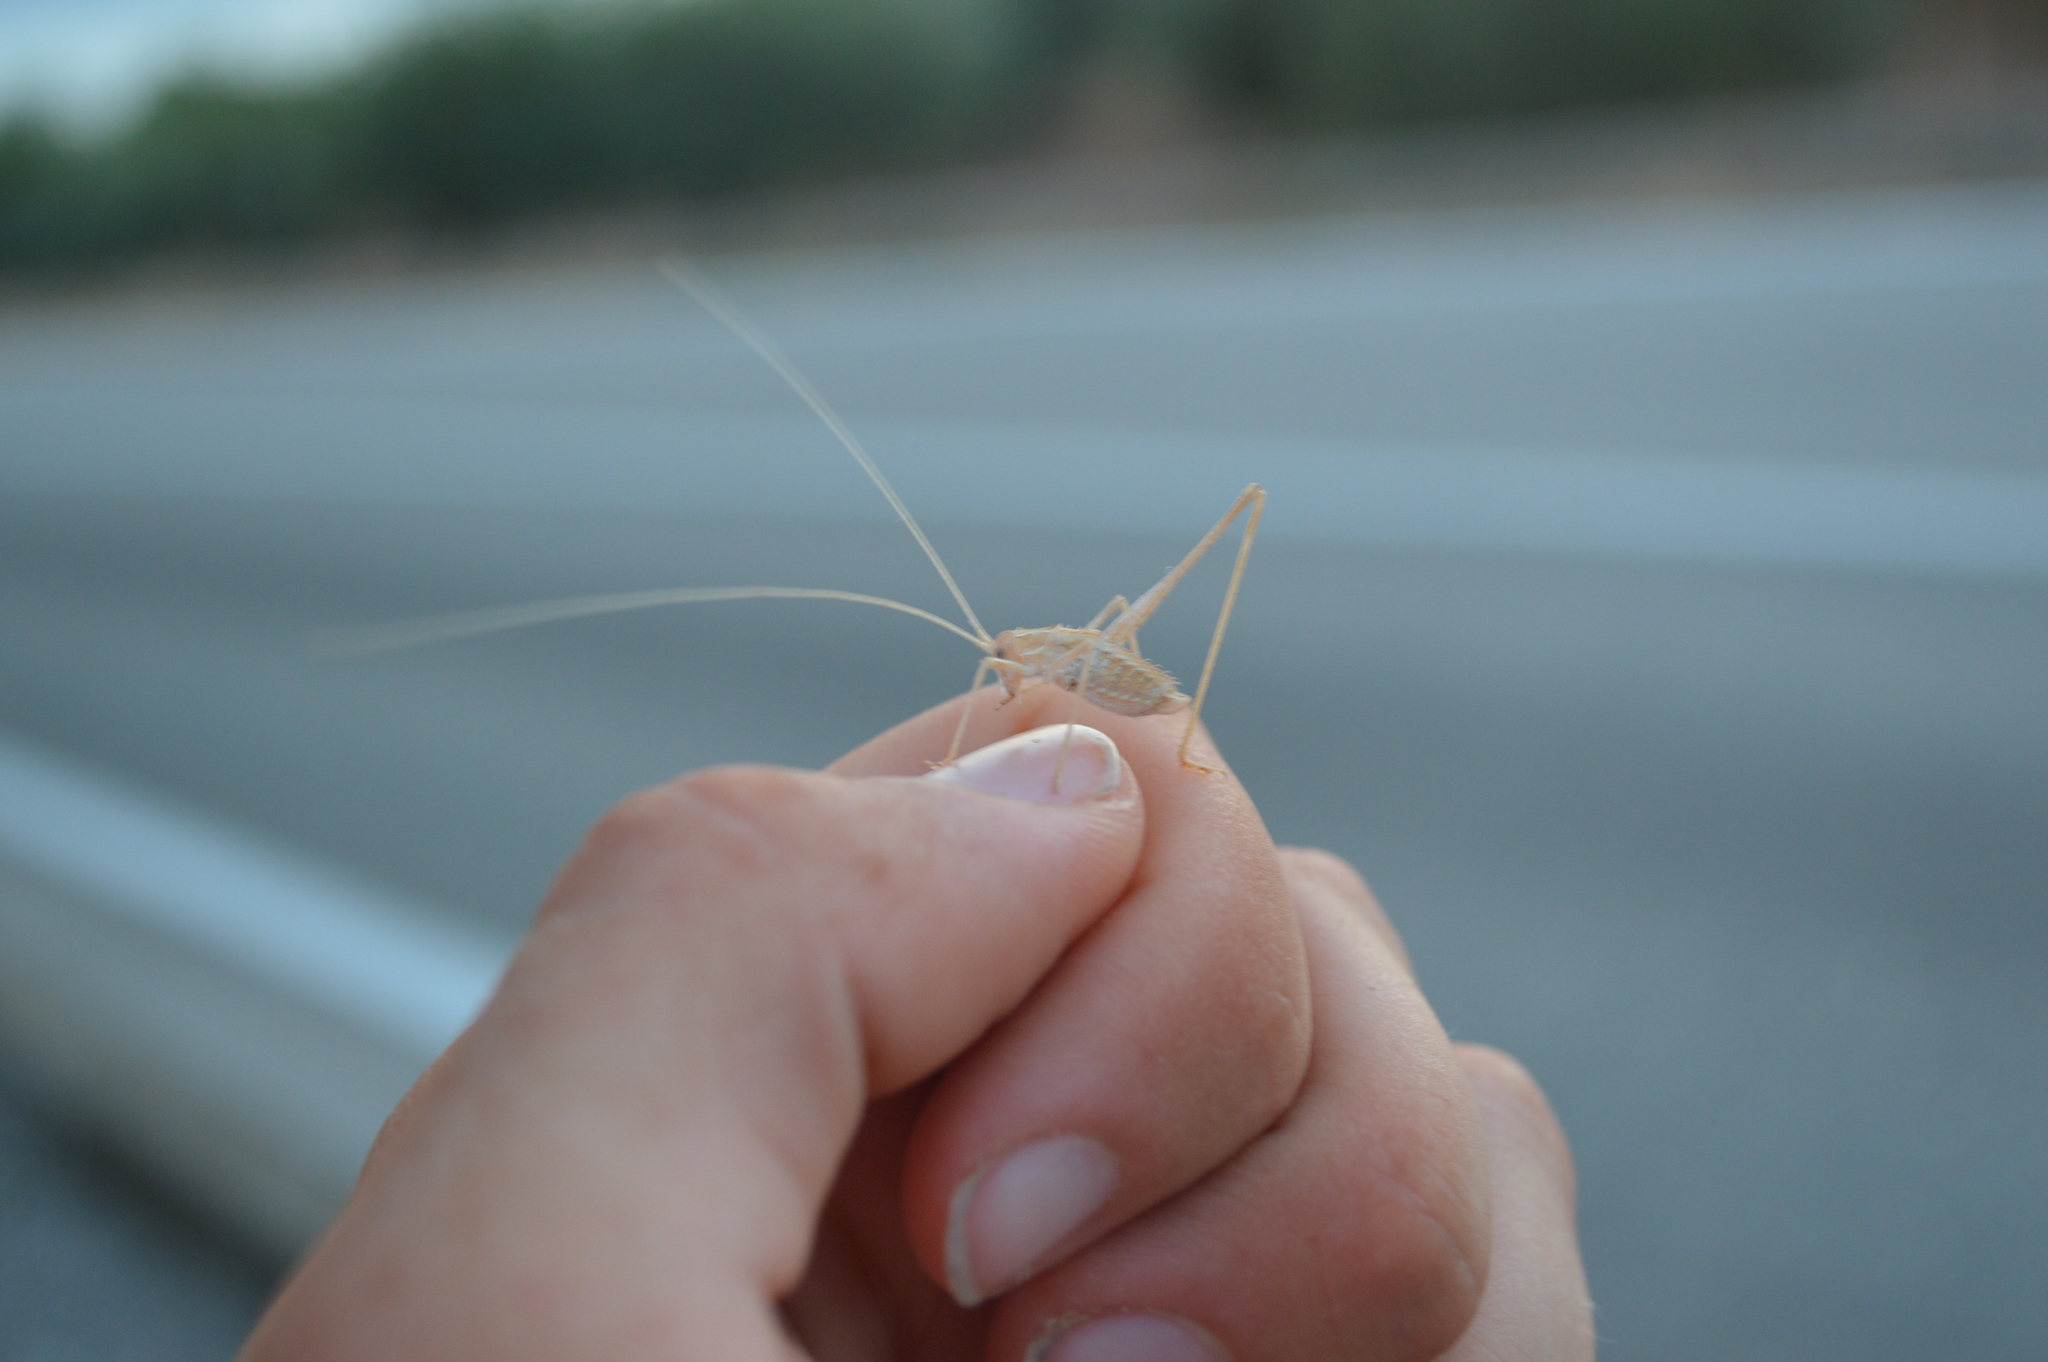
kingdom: Animalia
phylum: Arthropoda
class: Insecta
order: Orthoptera
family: Tettigoniidae
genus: Tylopsis
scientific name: Tylopsis lilifolia
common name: Lily bush-cricket
